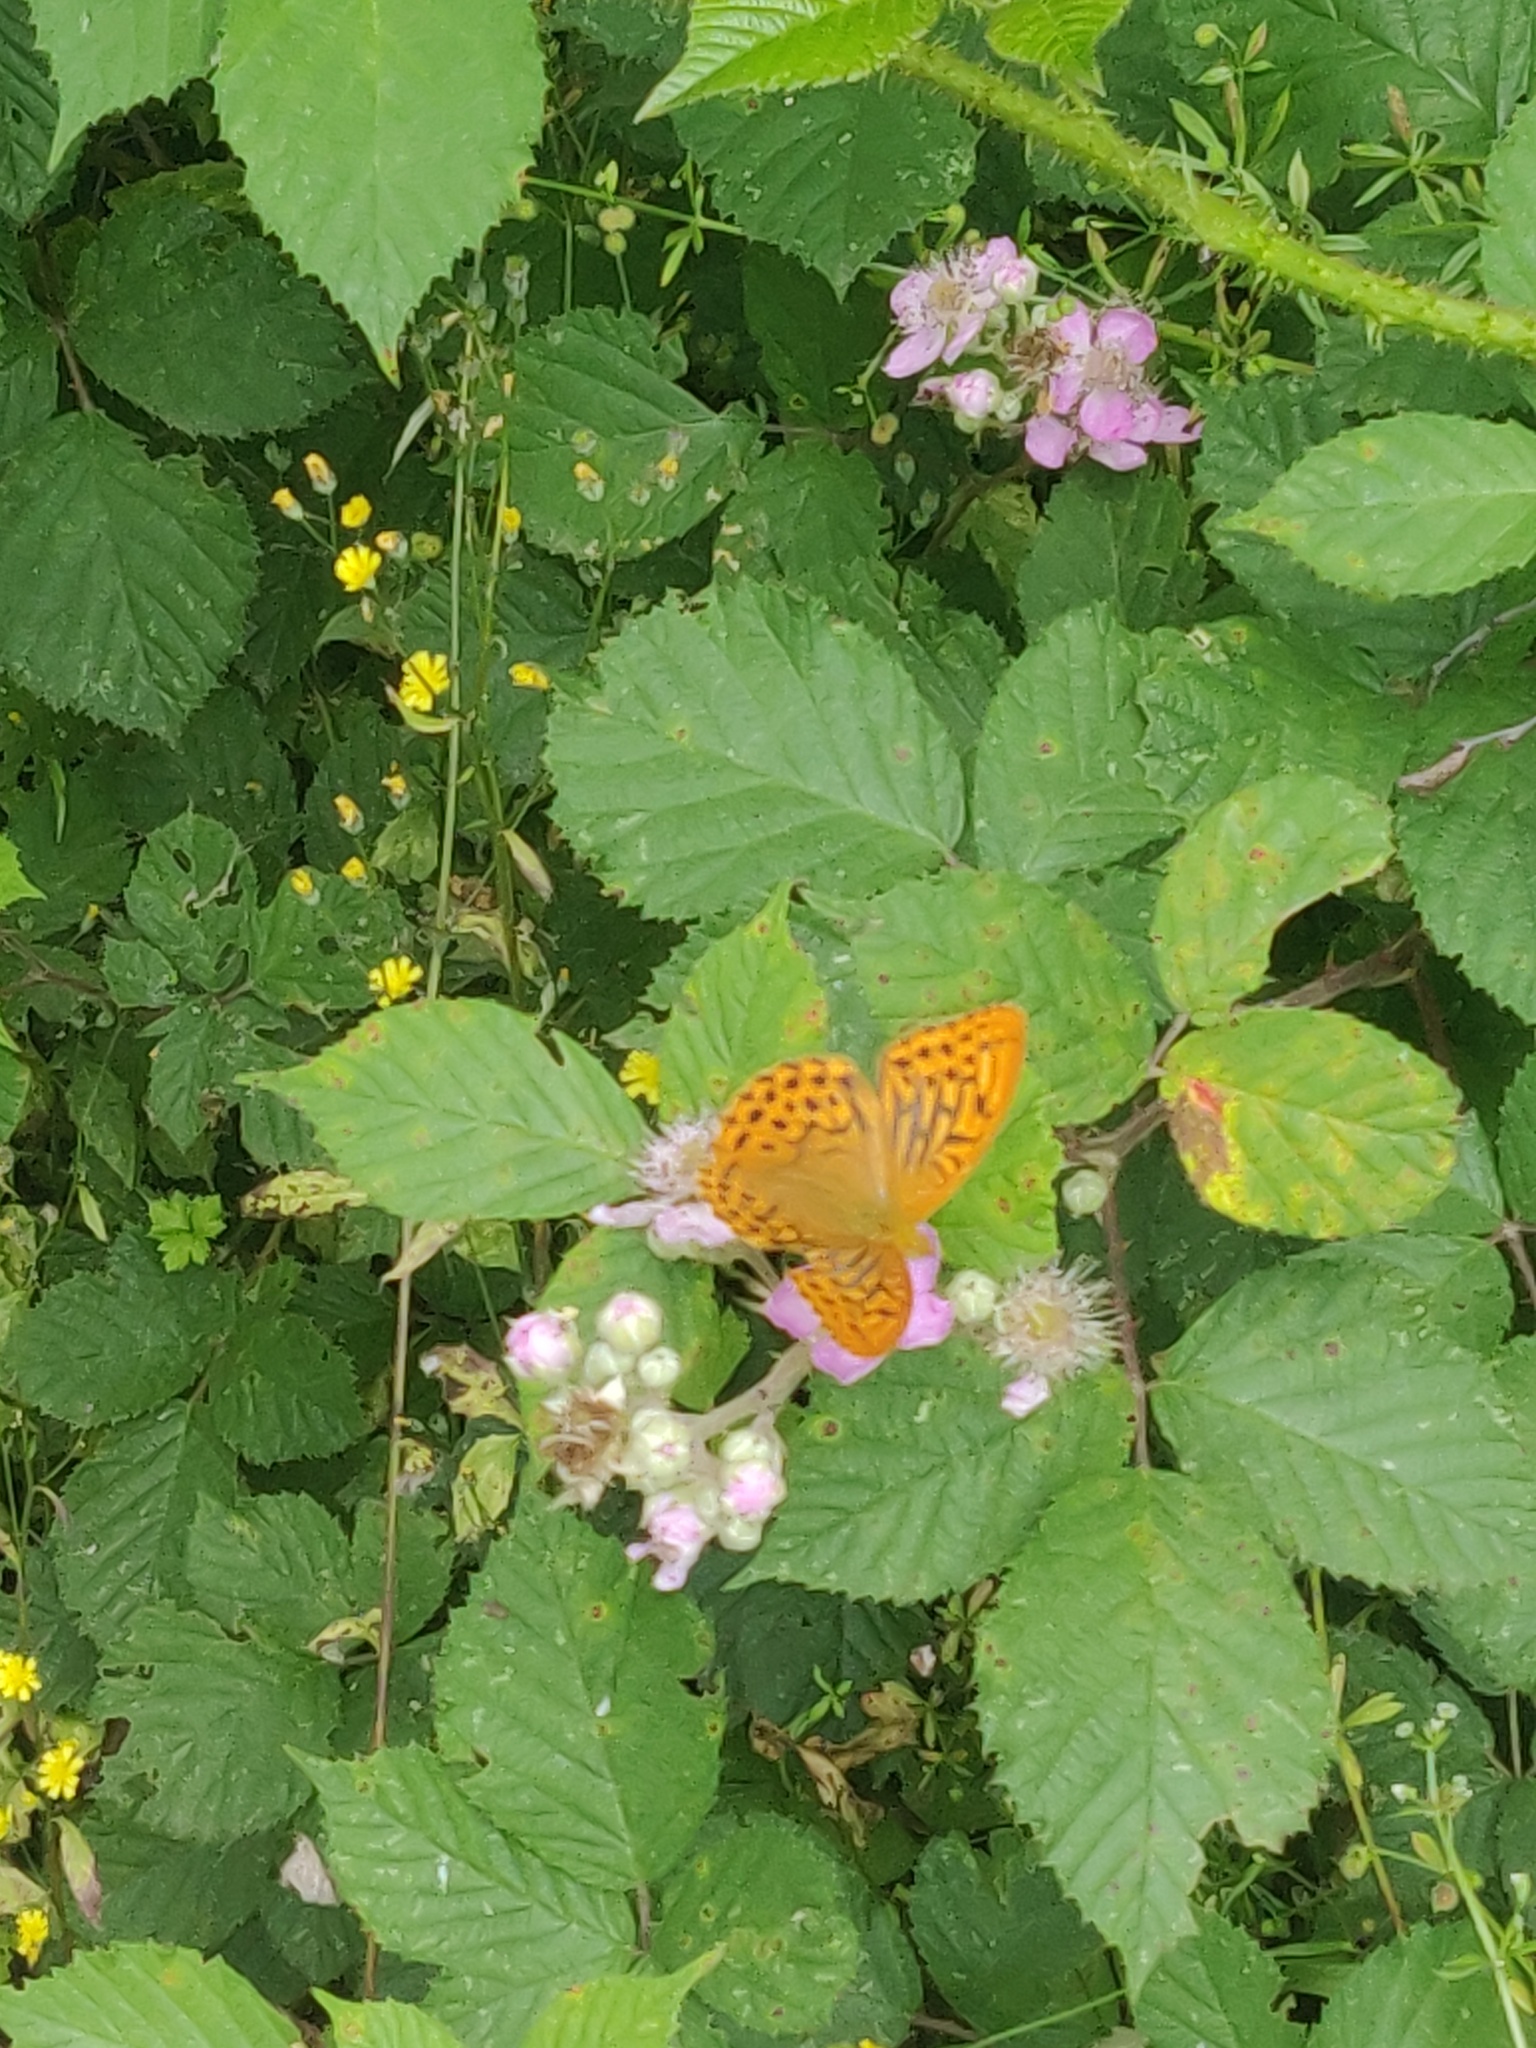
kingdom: Animalia
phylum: Arthropoda
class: Insecta
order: Lepidoptera
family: Nymphalidae
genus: Argynnis
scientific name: Argynnis paphia
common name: Silver-washed fritillary
